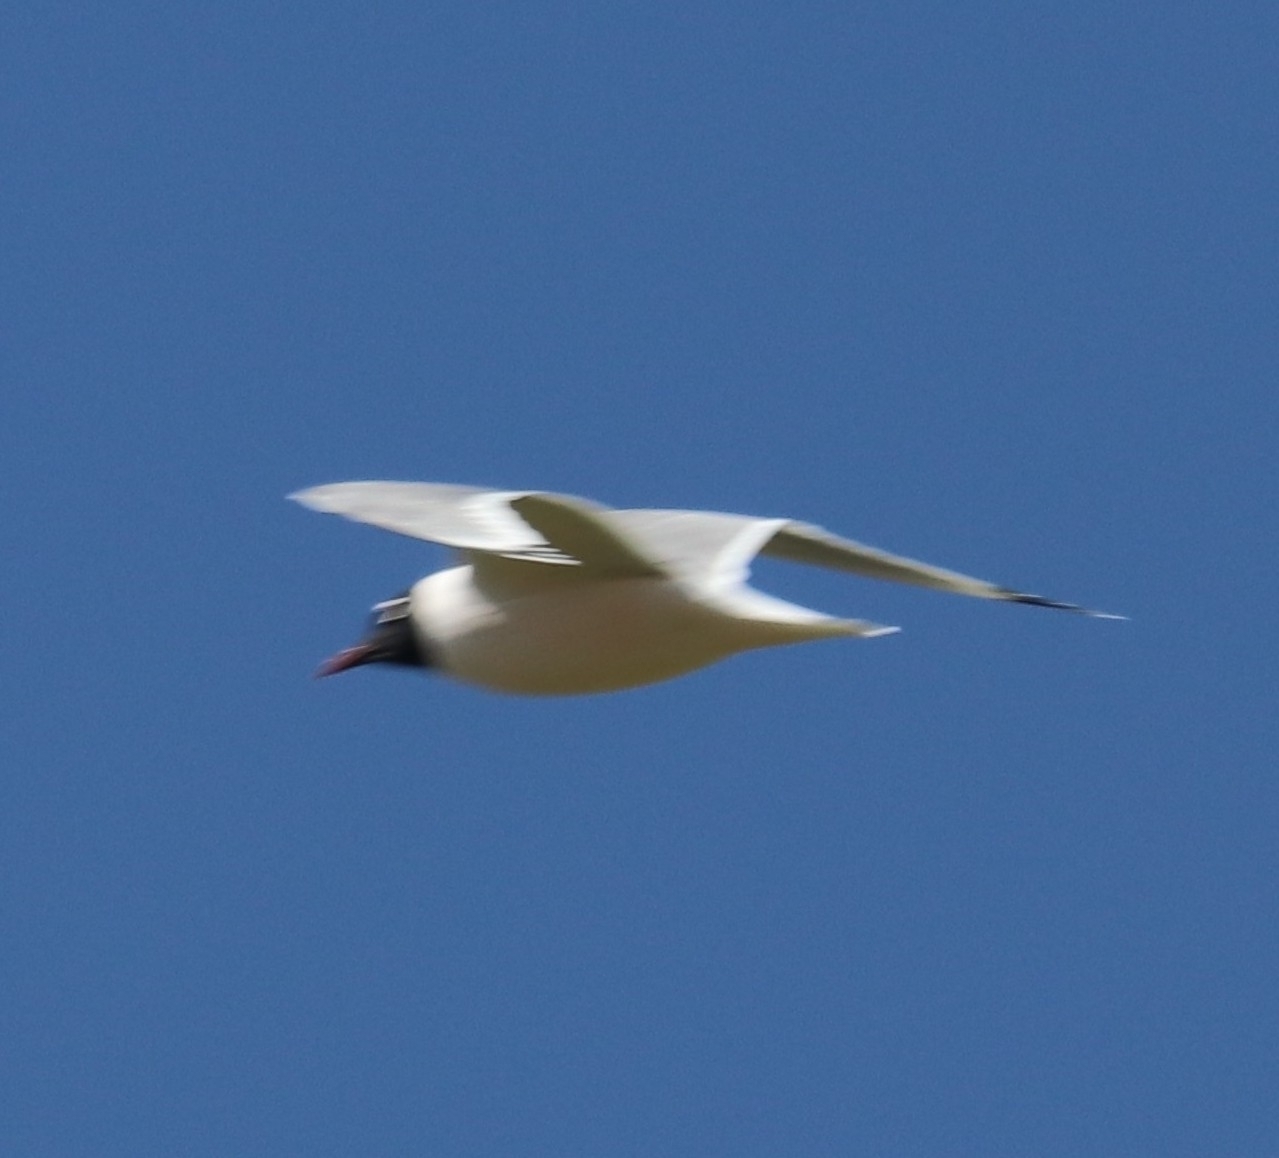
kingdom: Animalia
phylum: Chordata
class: Aves
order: Charadriiformes
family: Laridae
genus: Leucophaeus
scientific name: Leucophaeus pipixcan
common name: Franklin's gull
